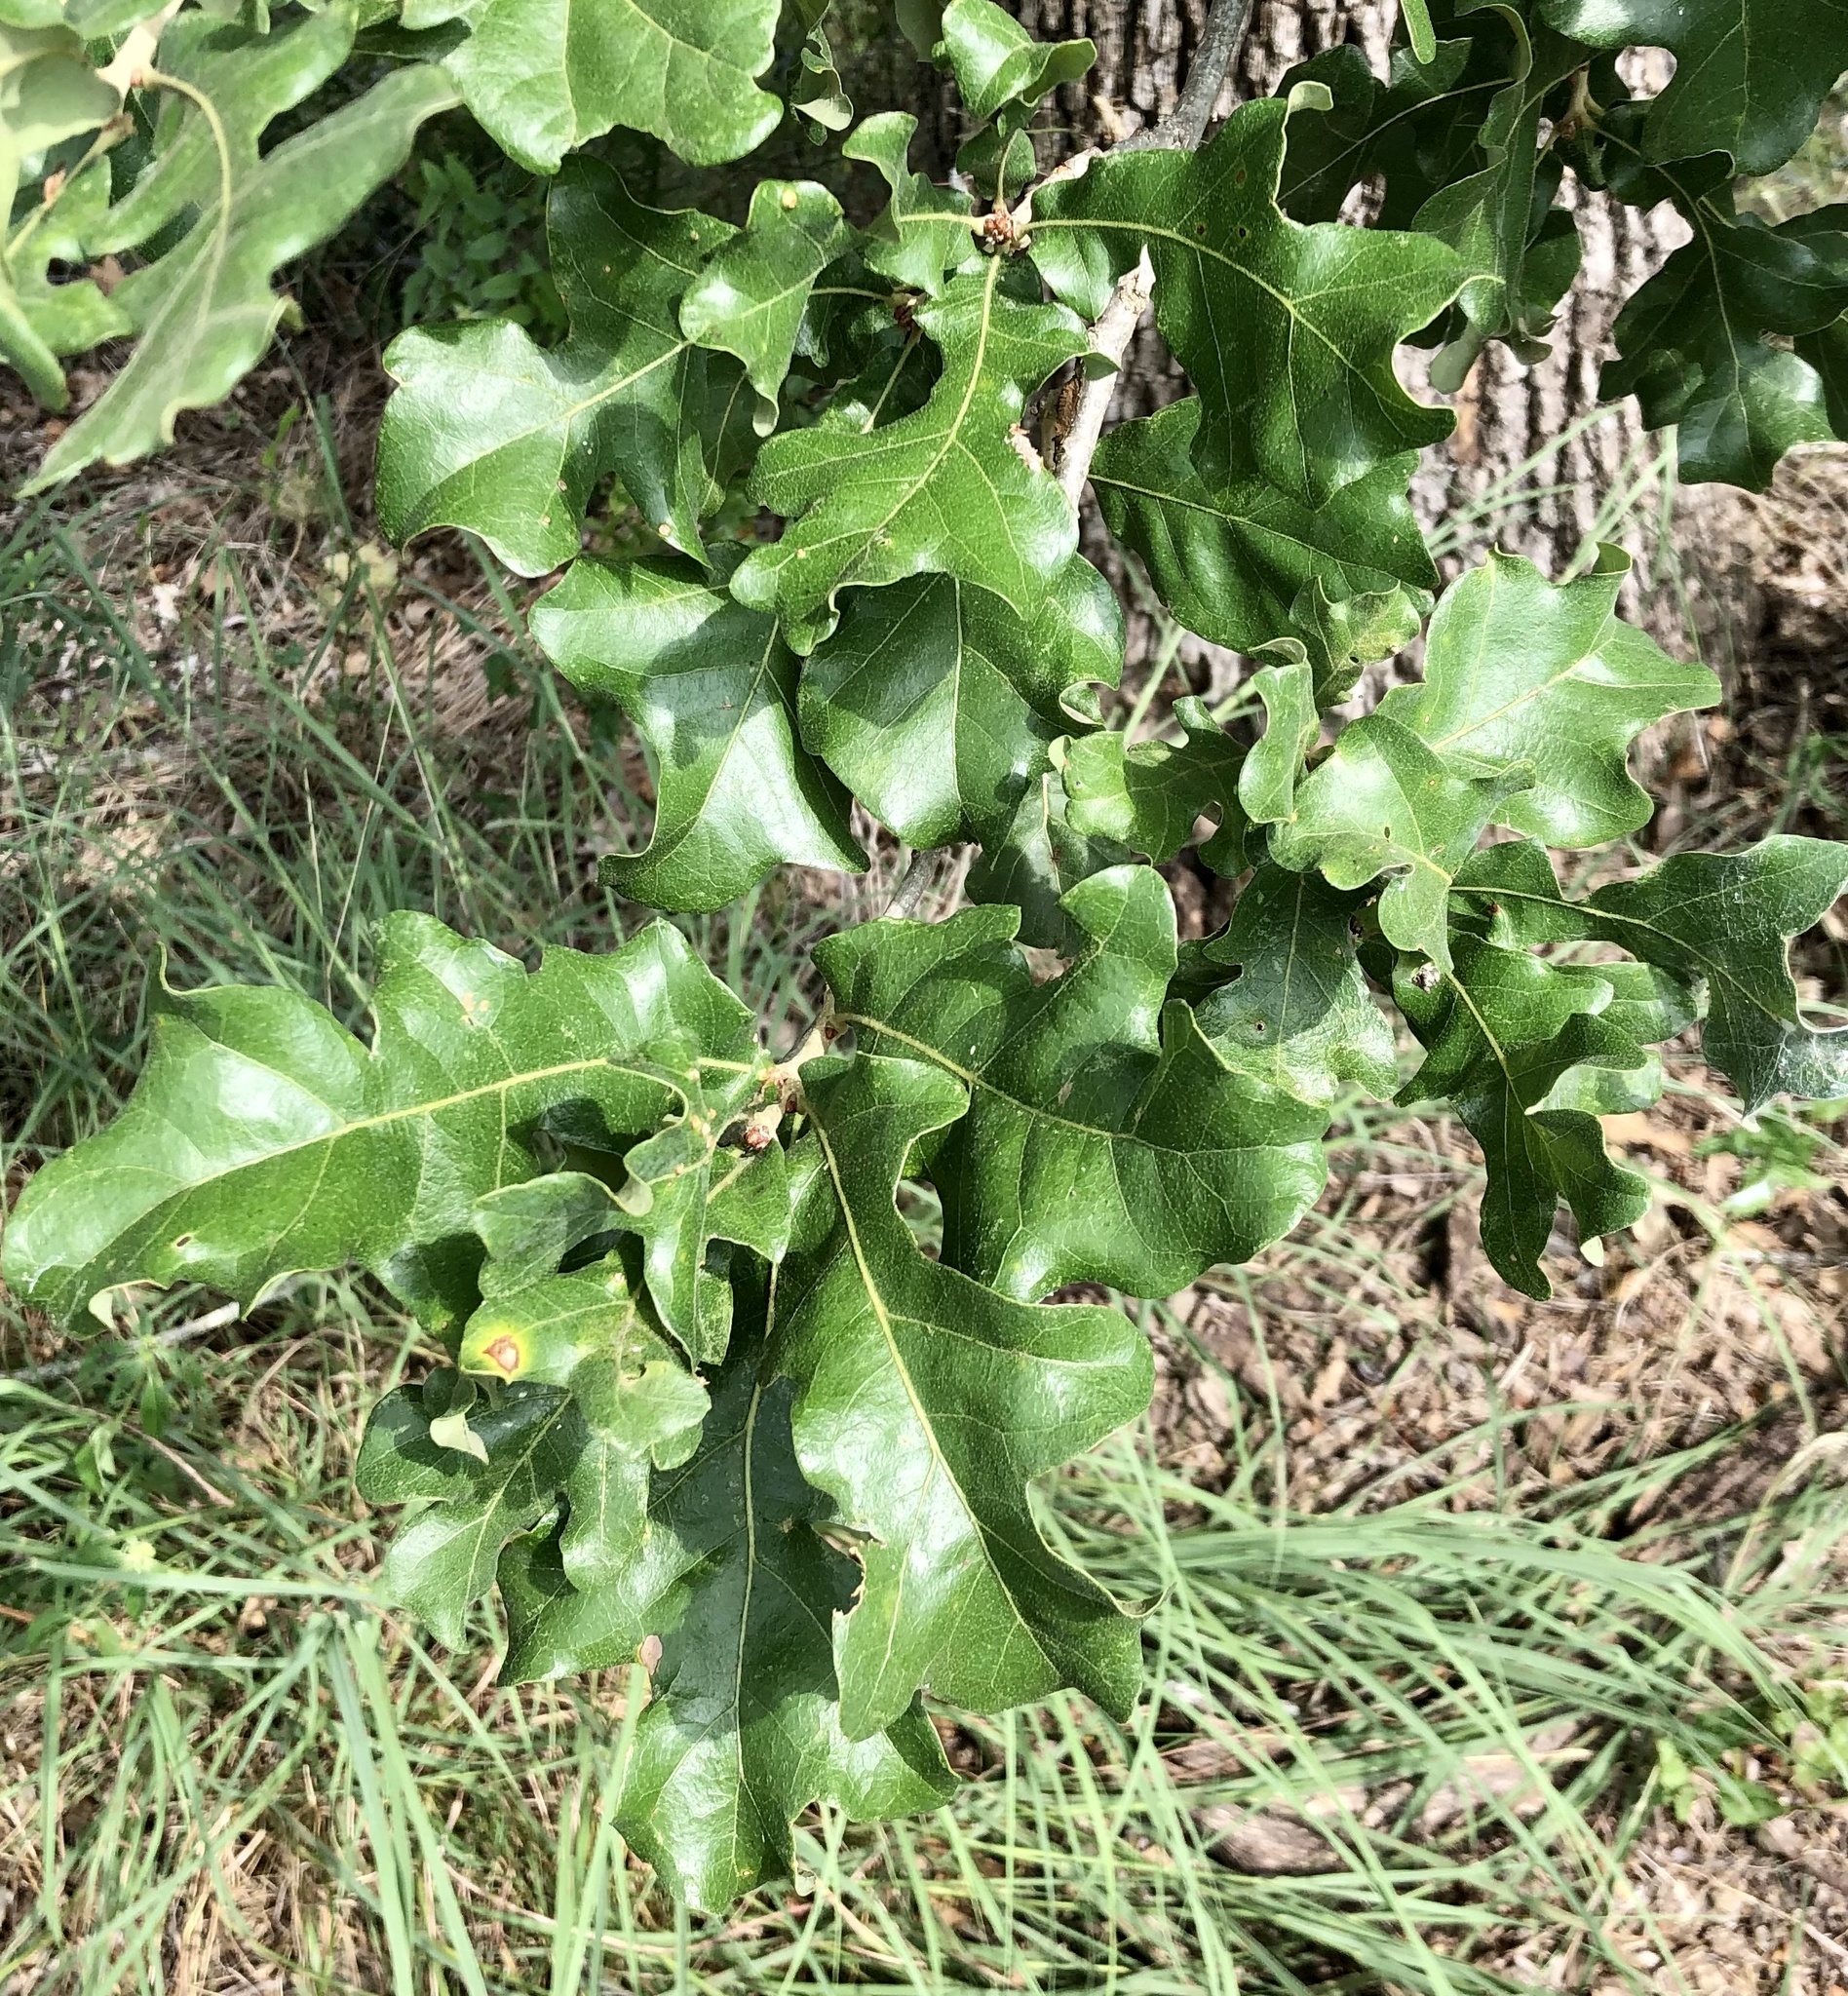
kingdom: Plantae
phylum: Tracheophyta
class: Magnoliopsida
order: Fagales
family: Fagaceae
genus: Quercus
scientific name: Quercus stellata
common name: Post oak
